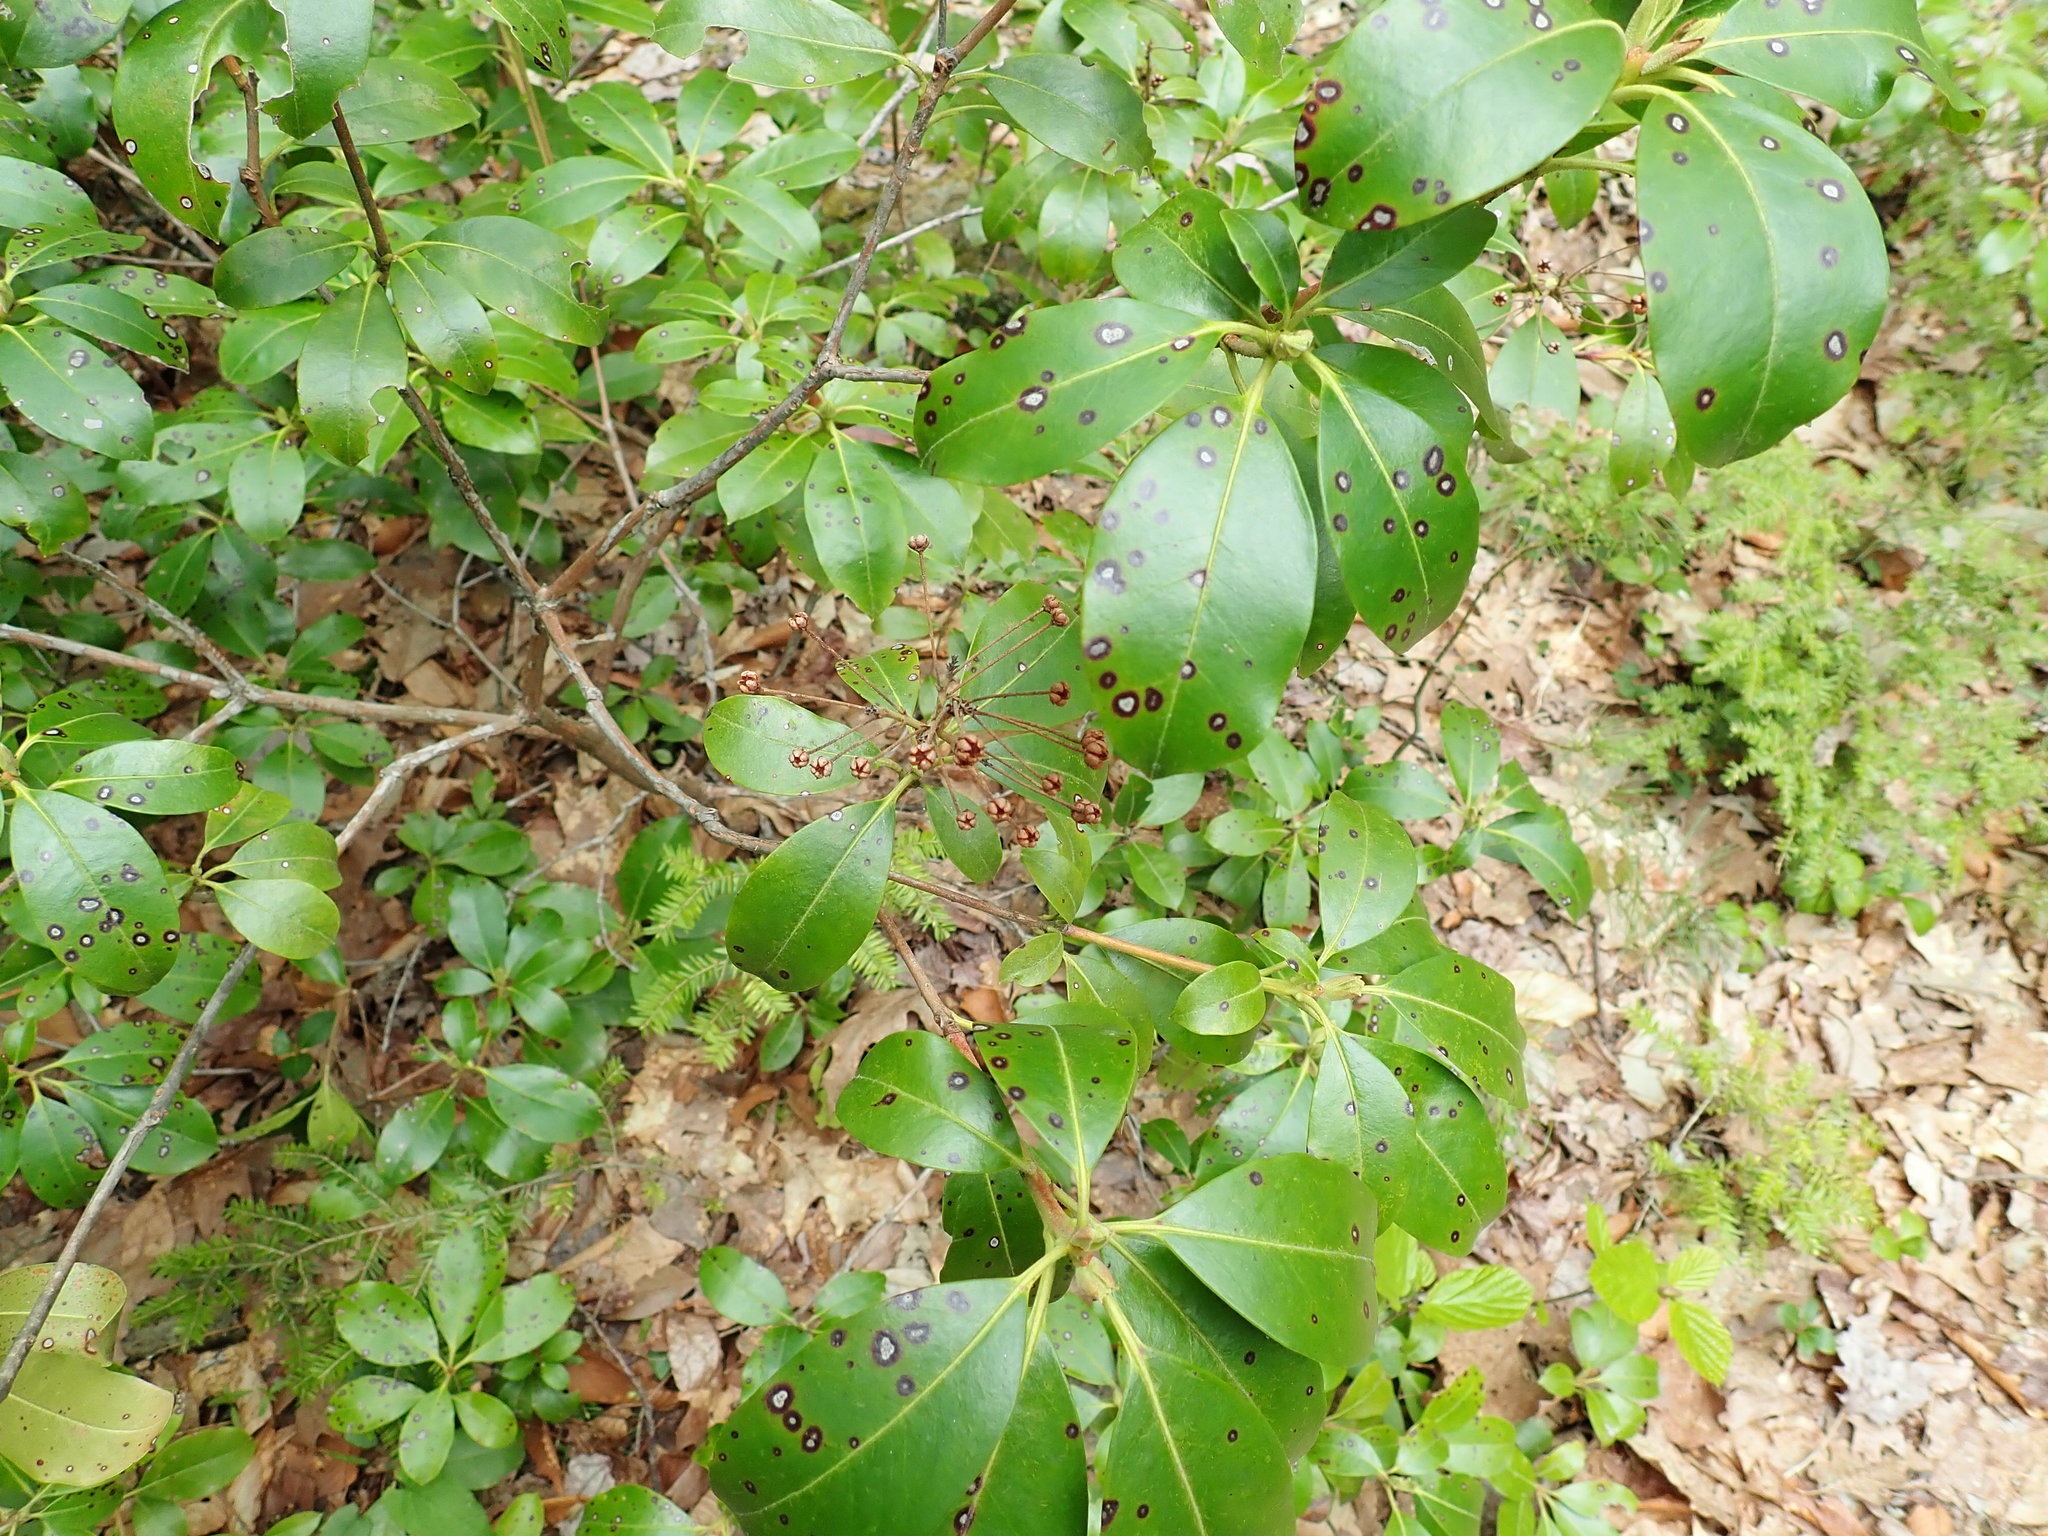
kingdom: Plantae
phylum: Tracheophyta
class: Magnoliopsida
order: Ericales
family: Ericaceae
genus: Kalmia
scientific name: Kalmia latifolia
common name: Mountain-laurel
